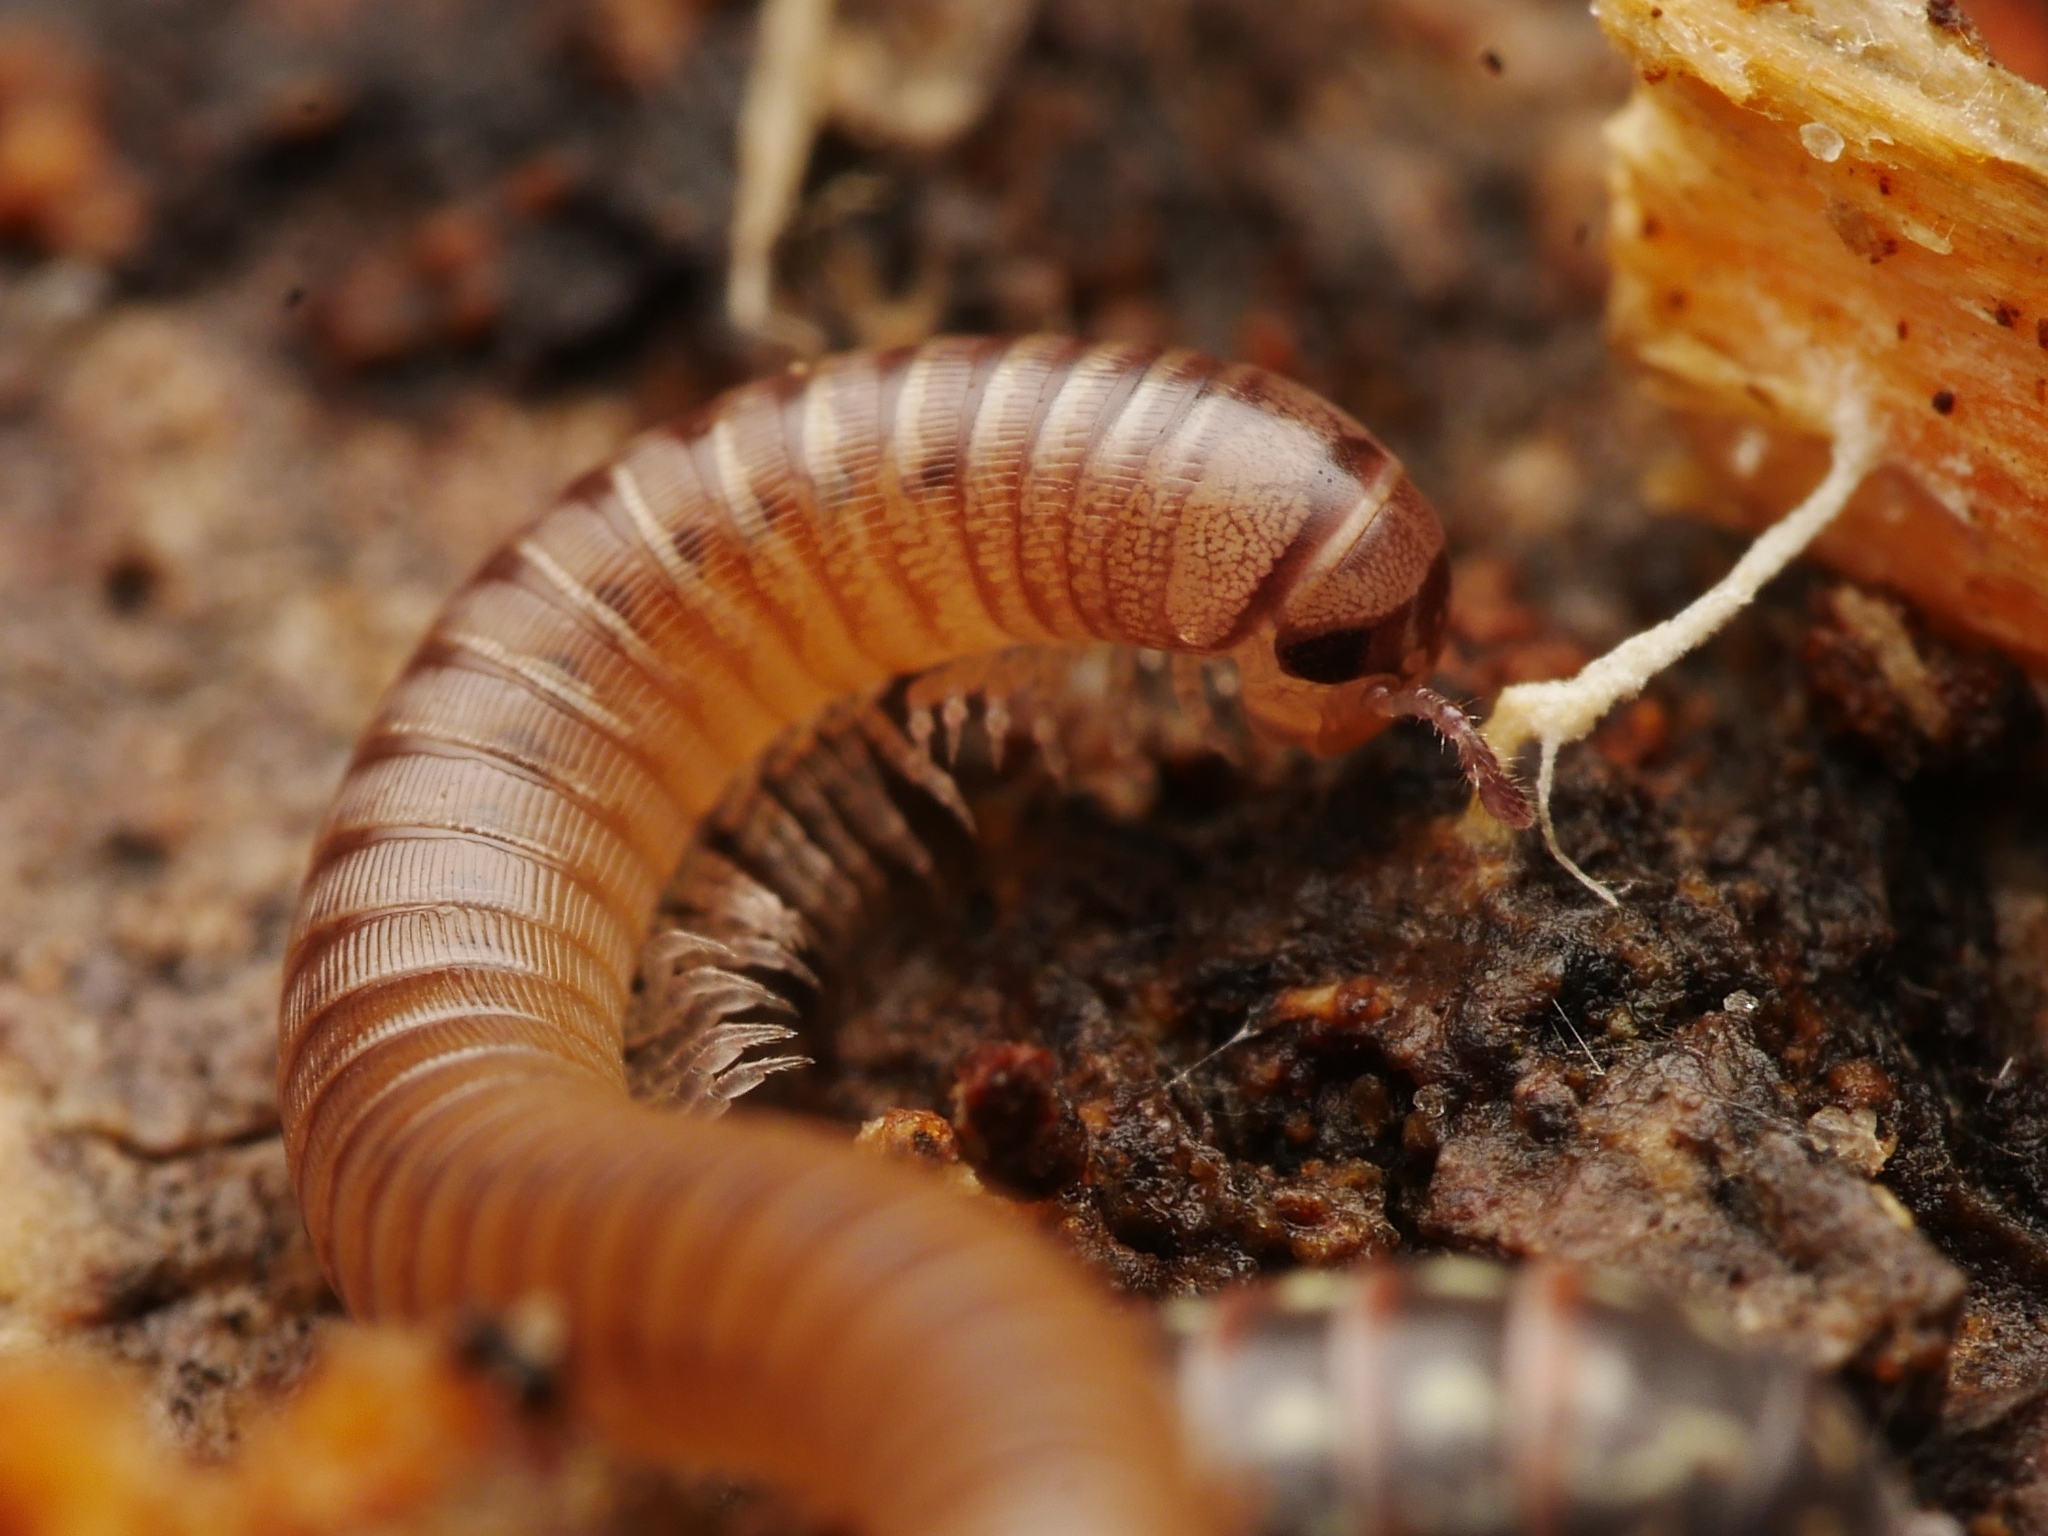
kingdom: Animalia
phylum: Arthropoda
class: Diplopoda
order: Julida
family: Julidae
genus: Cylindroiulus
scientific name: Cylindroiulus punctatus
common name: Blunt-tailed millipede
